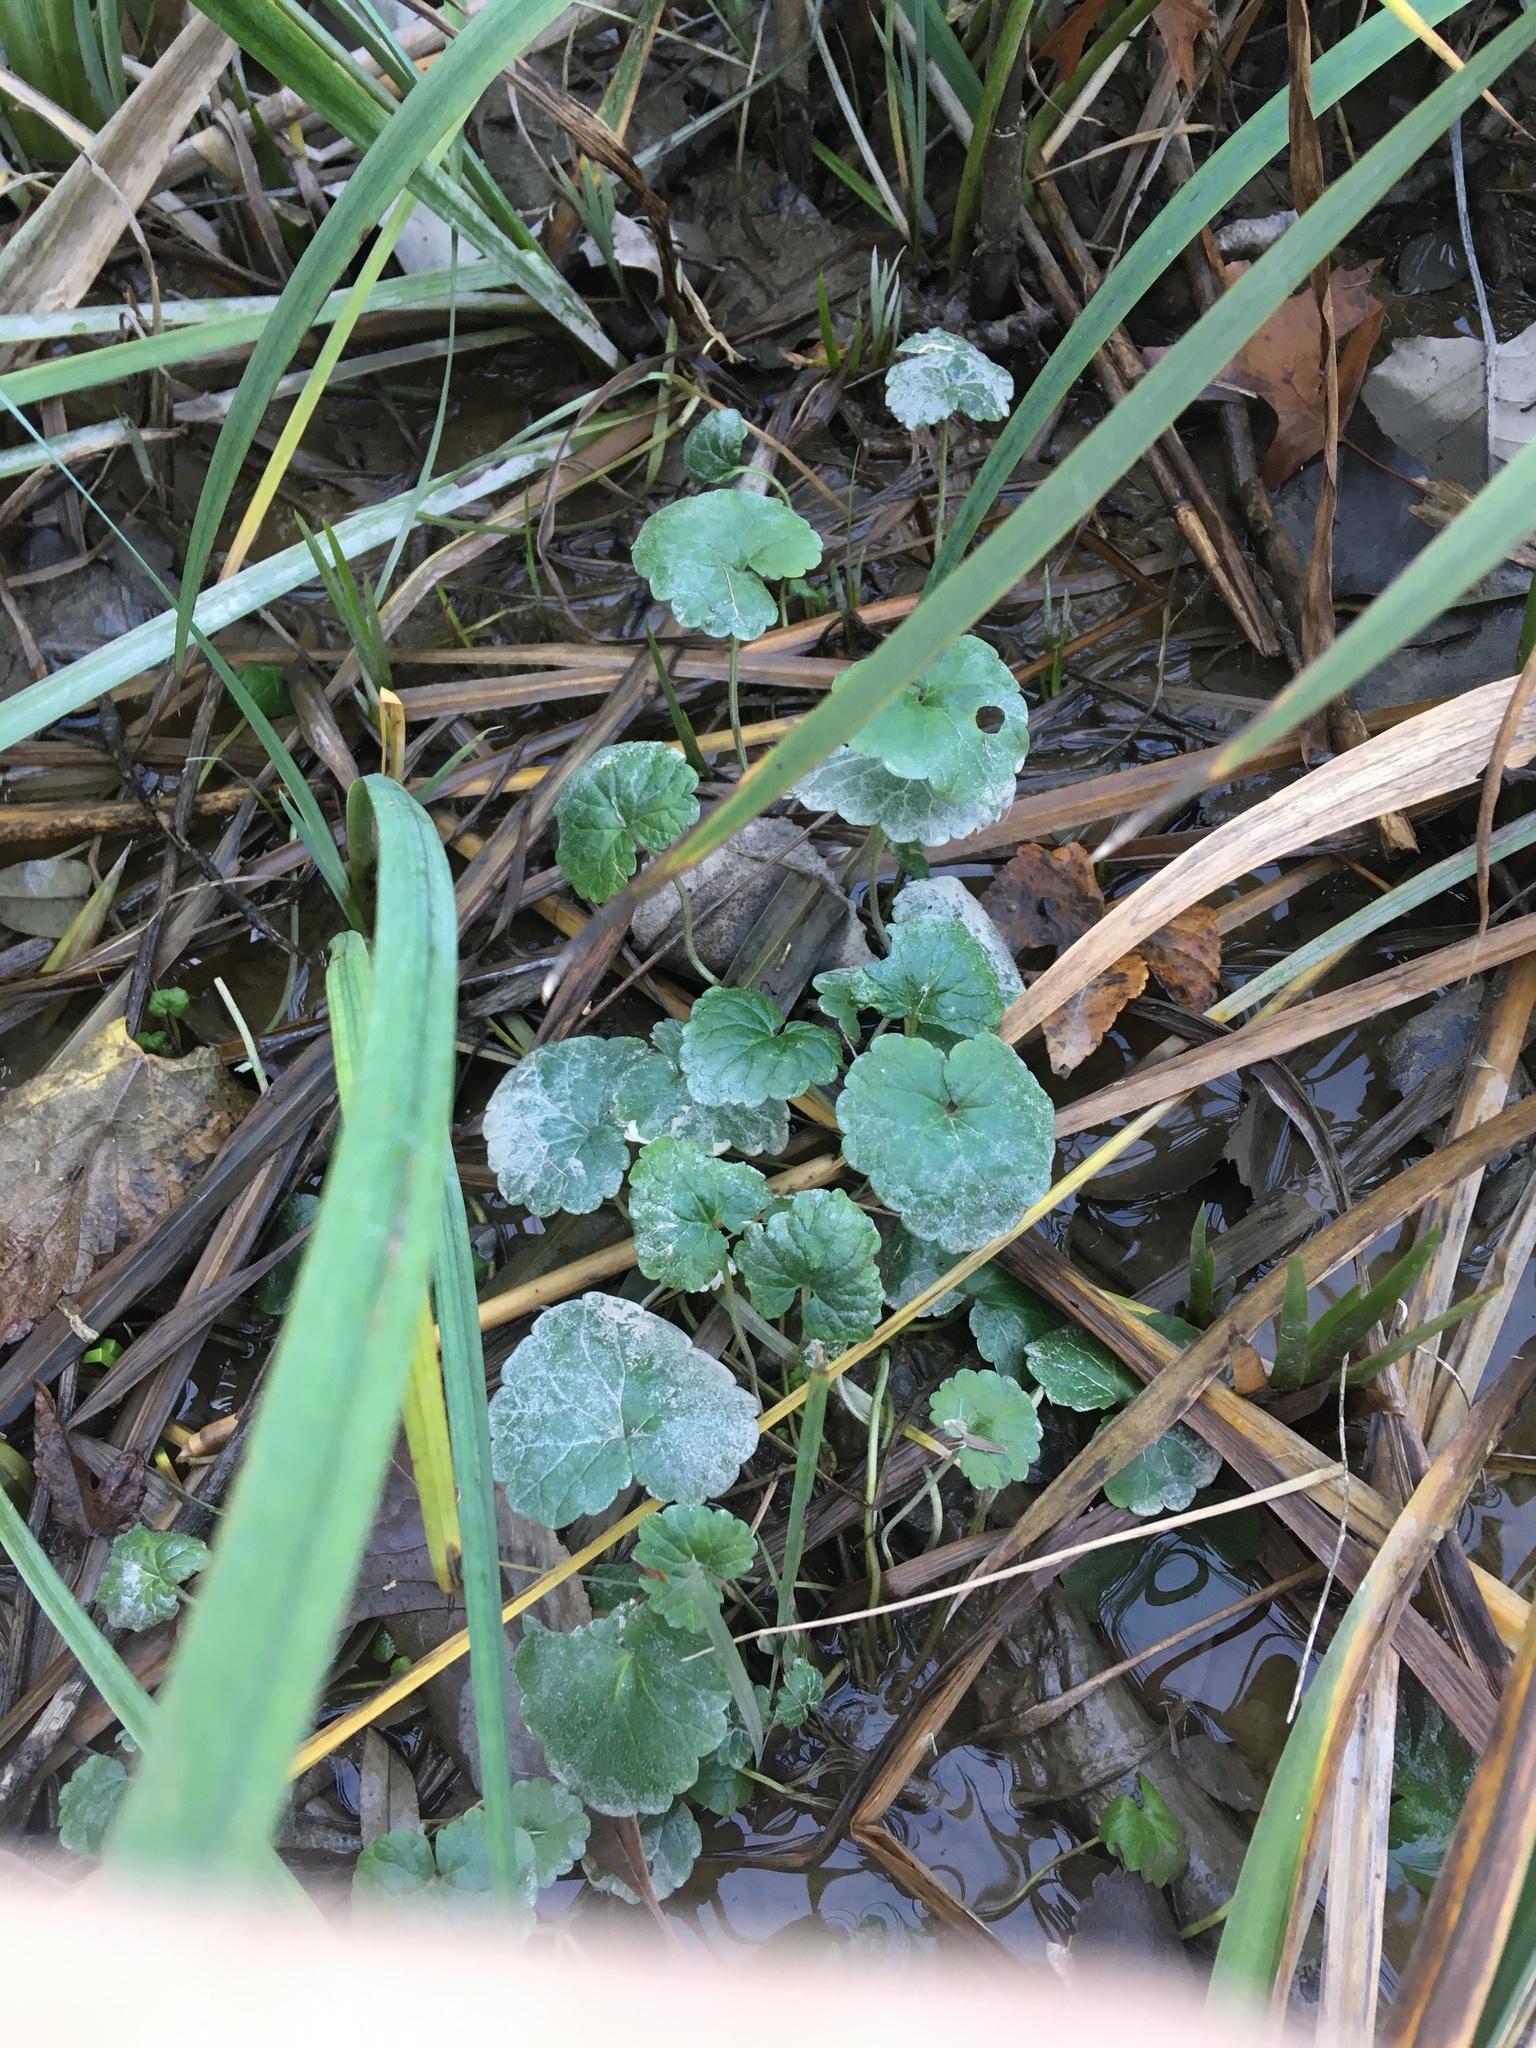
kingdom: Plantae
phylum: Tracheophyta
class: Magnoliopsida
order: Lamiales
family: Lamiaceae
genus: Glechoma
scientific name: Glechoma hederacea
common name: Ground ivy
